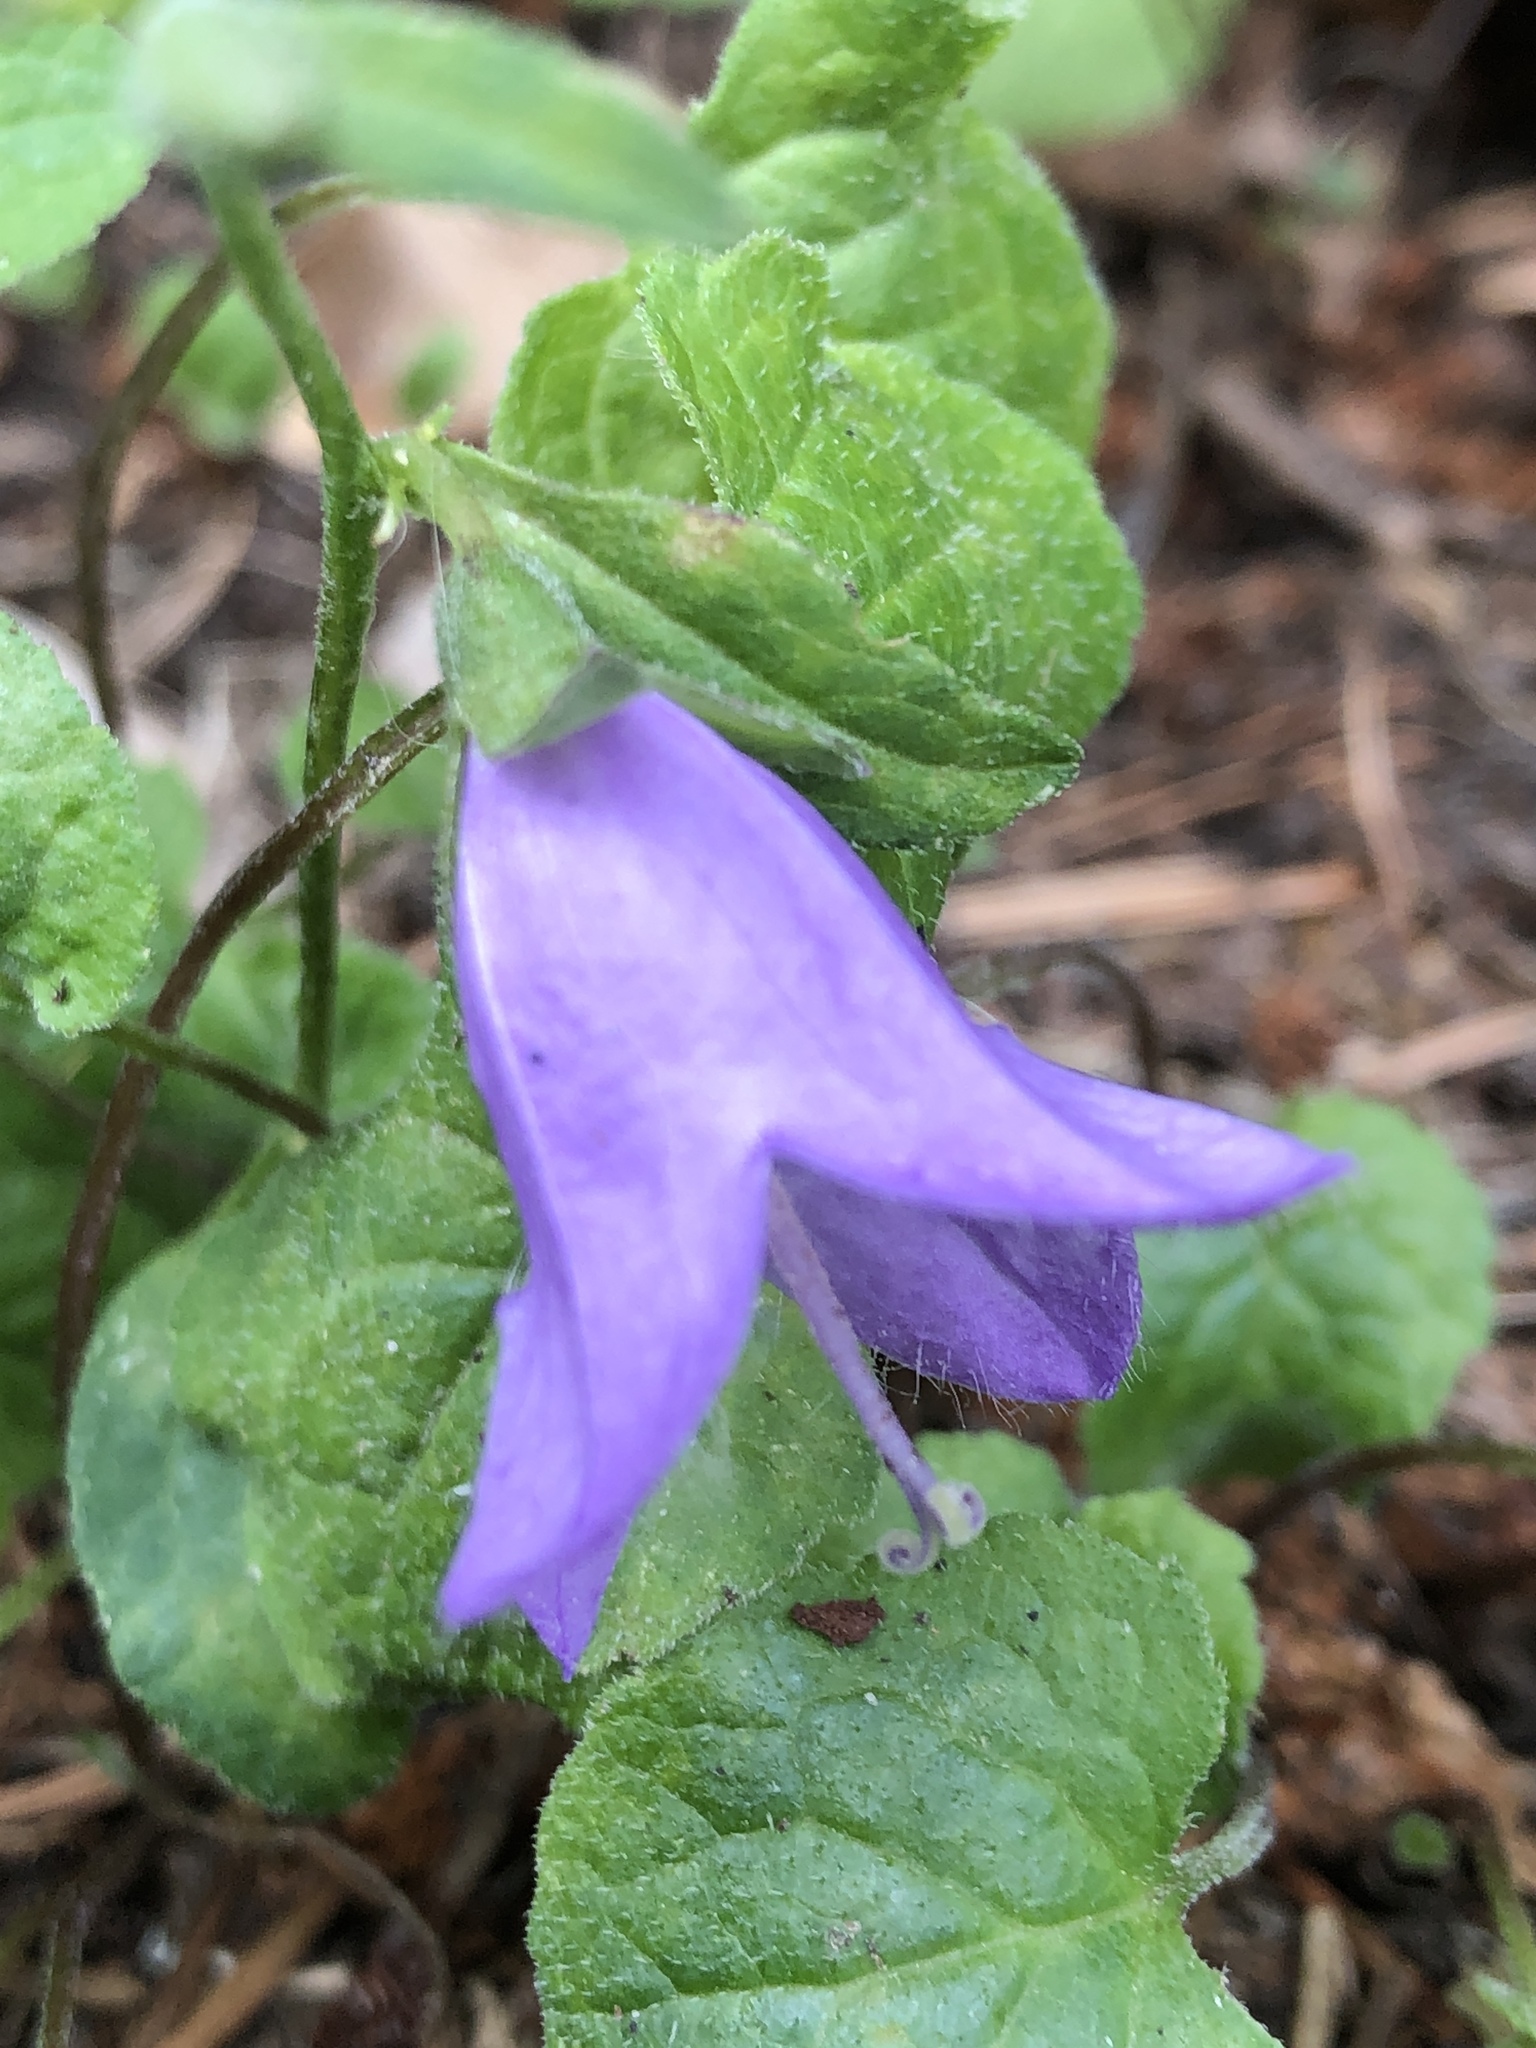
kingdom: Plantae
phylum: Tracheophyta
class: Magnoliopsida
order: Asterales
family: Campanulaceae
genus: Campanula
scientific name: Campanula trachelium
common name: Nettle-leaved bellflower
